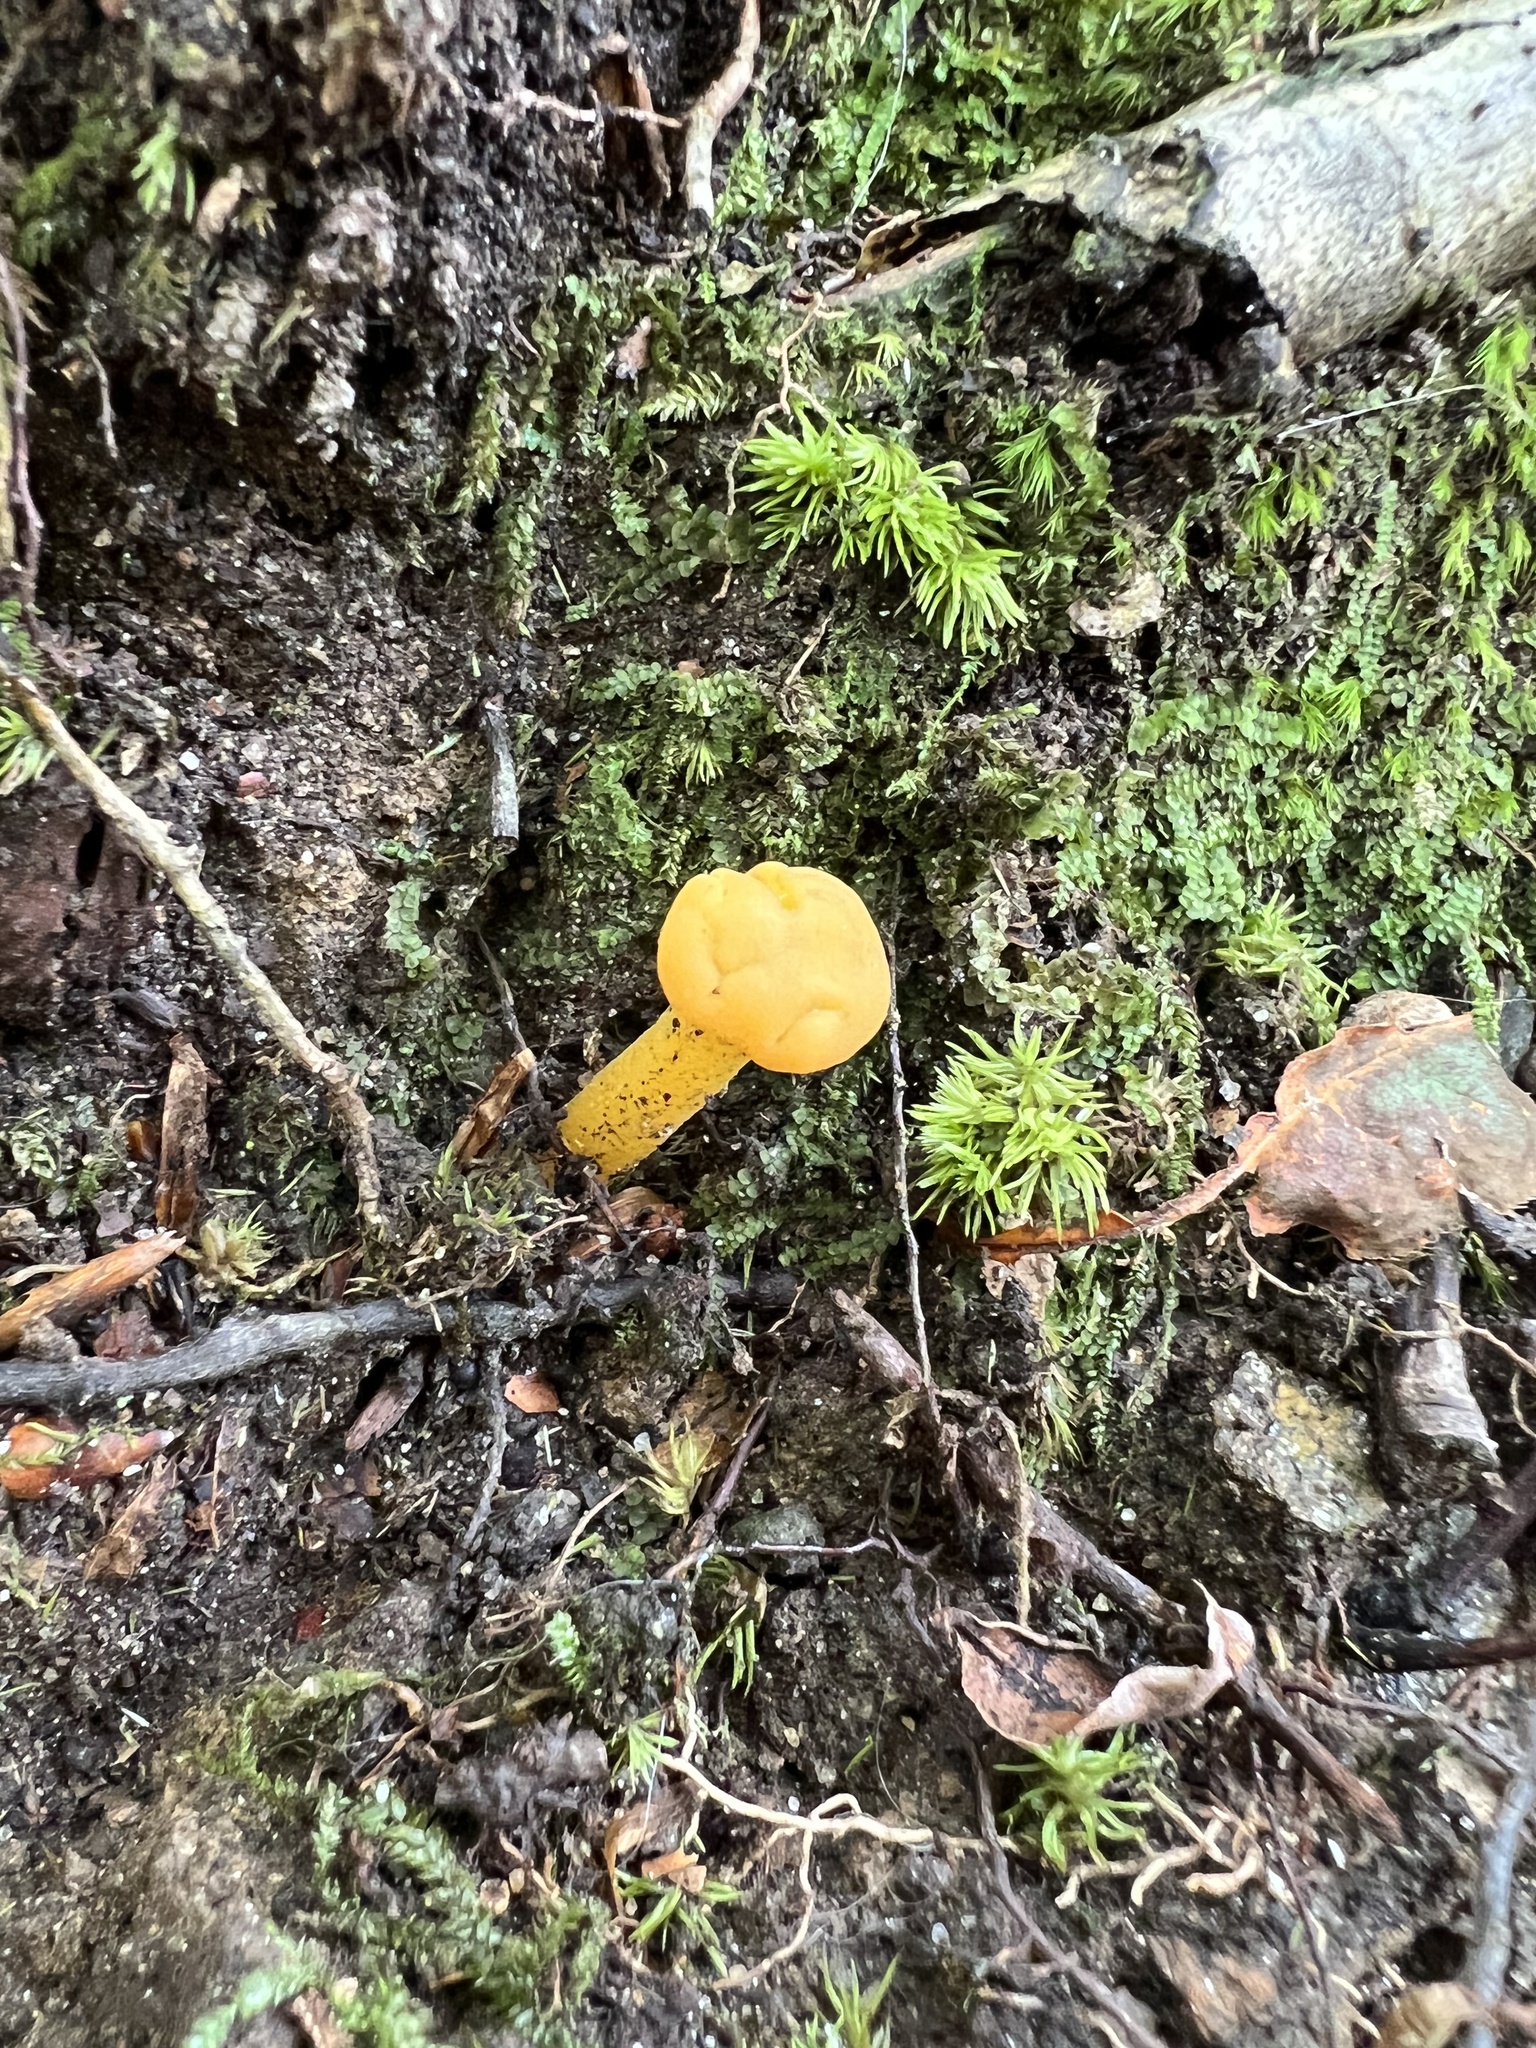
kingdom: Fungi
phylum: Ascomycota
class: Leotiomycetes
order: Leotiales
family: Leotiaceae
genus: Leotia
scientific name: Leotia lubrica
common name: Jellybaby
